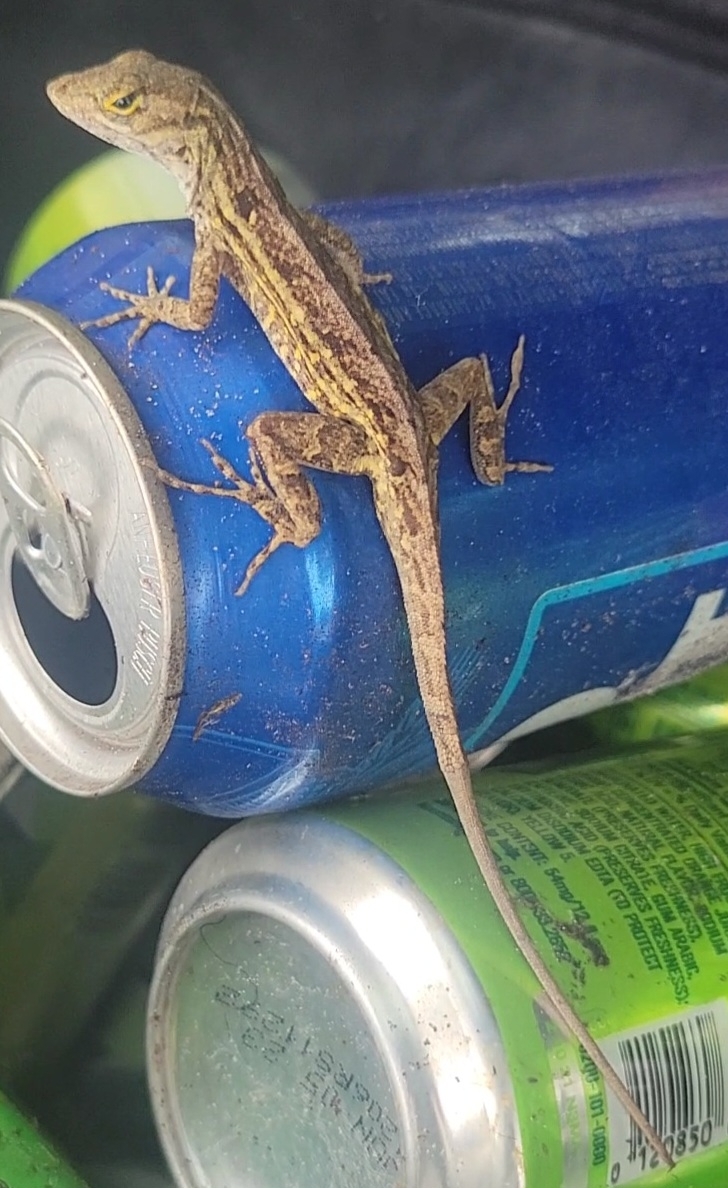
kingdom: Animalia
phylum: Chordata
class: Squamata
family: Dactyloidae
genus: Anolis
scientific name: Anolis sagrei
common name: Brown anole
